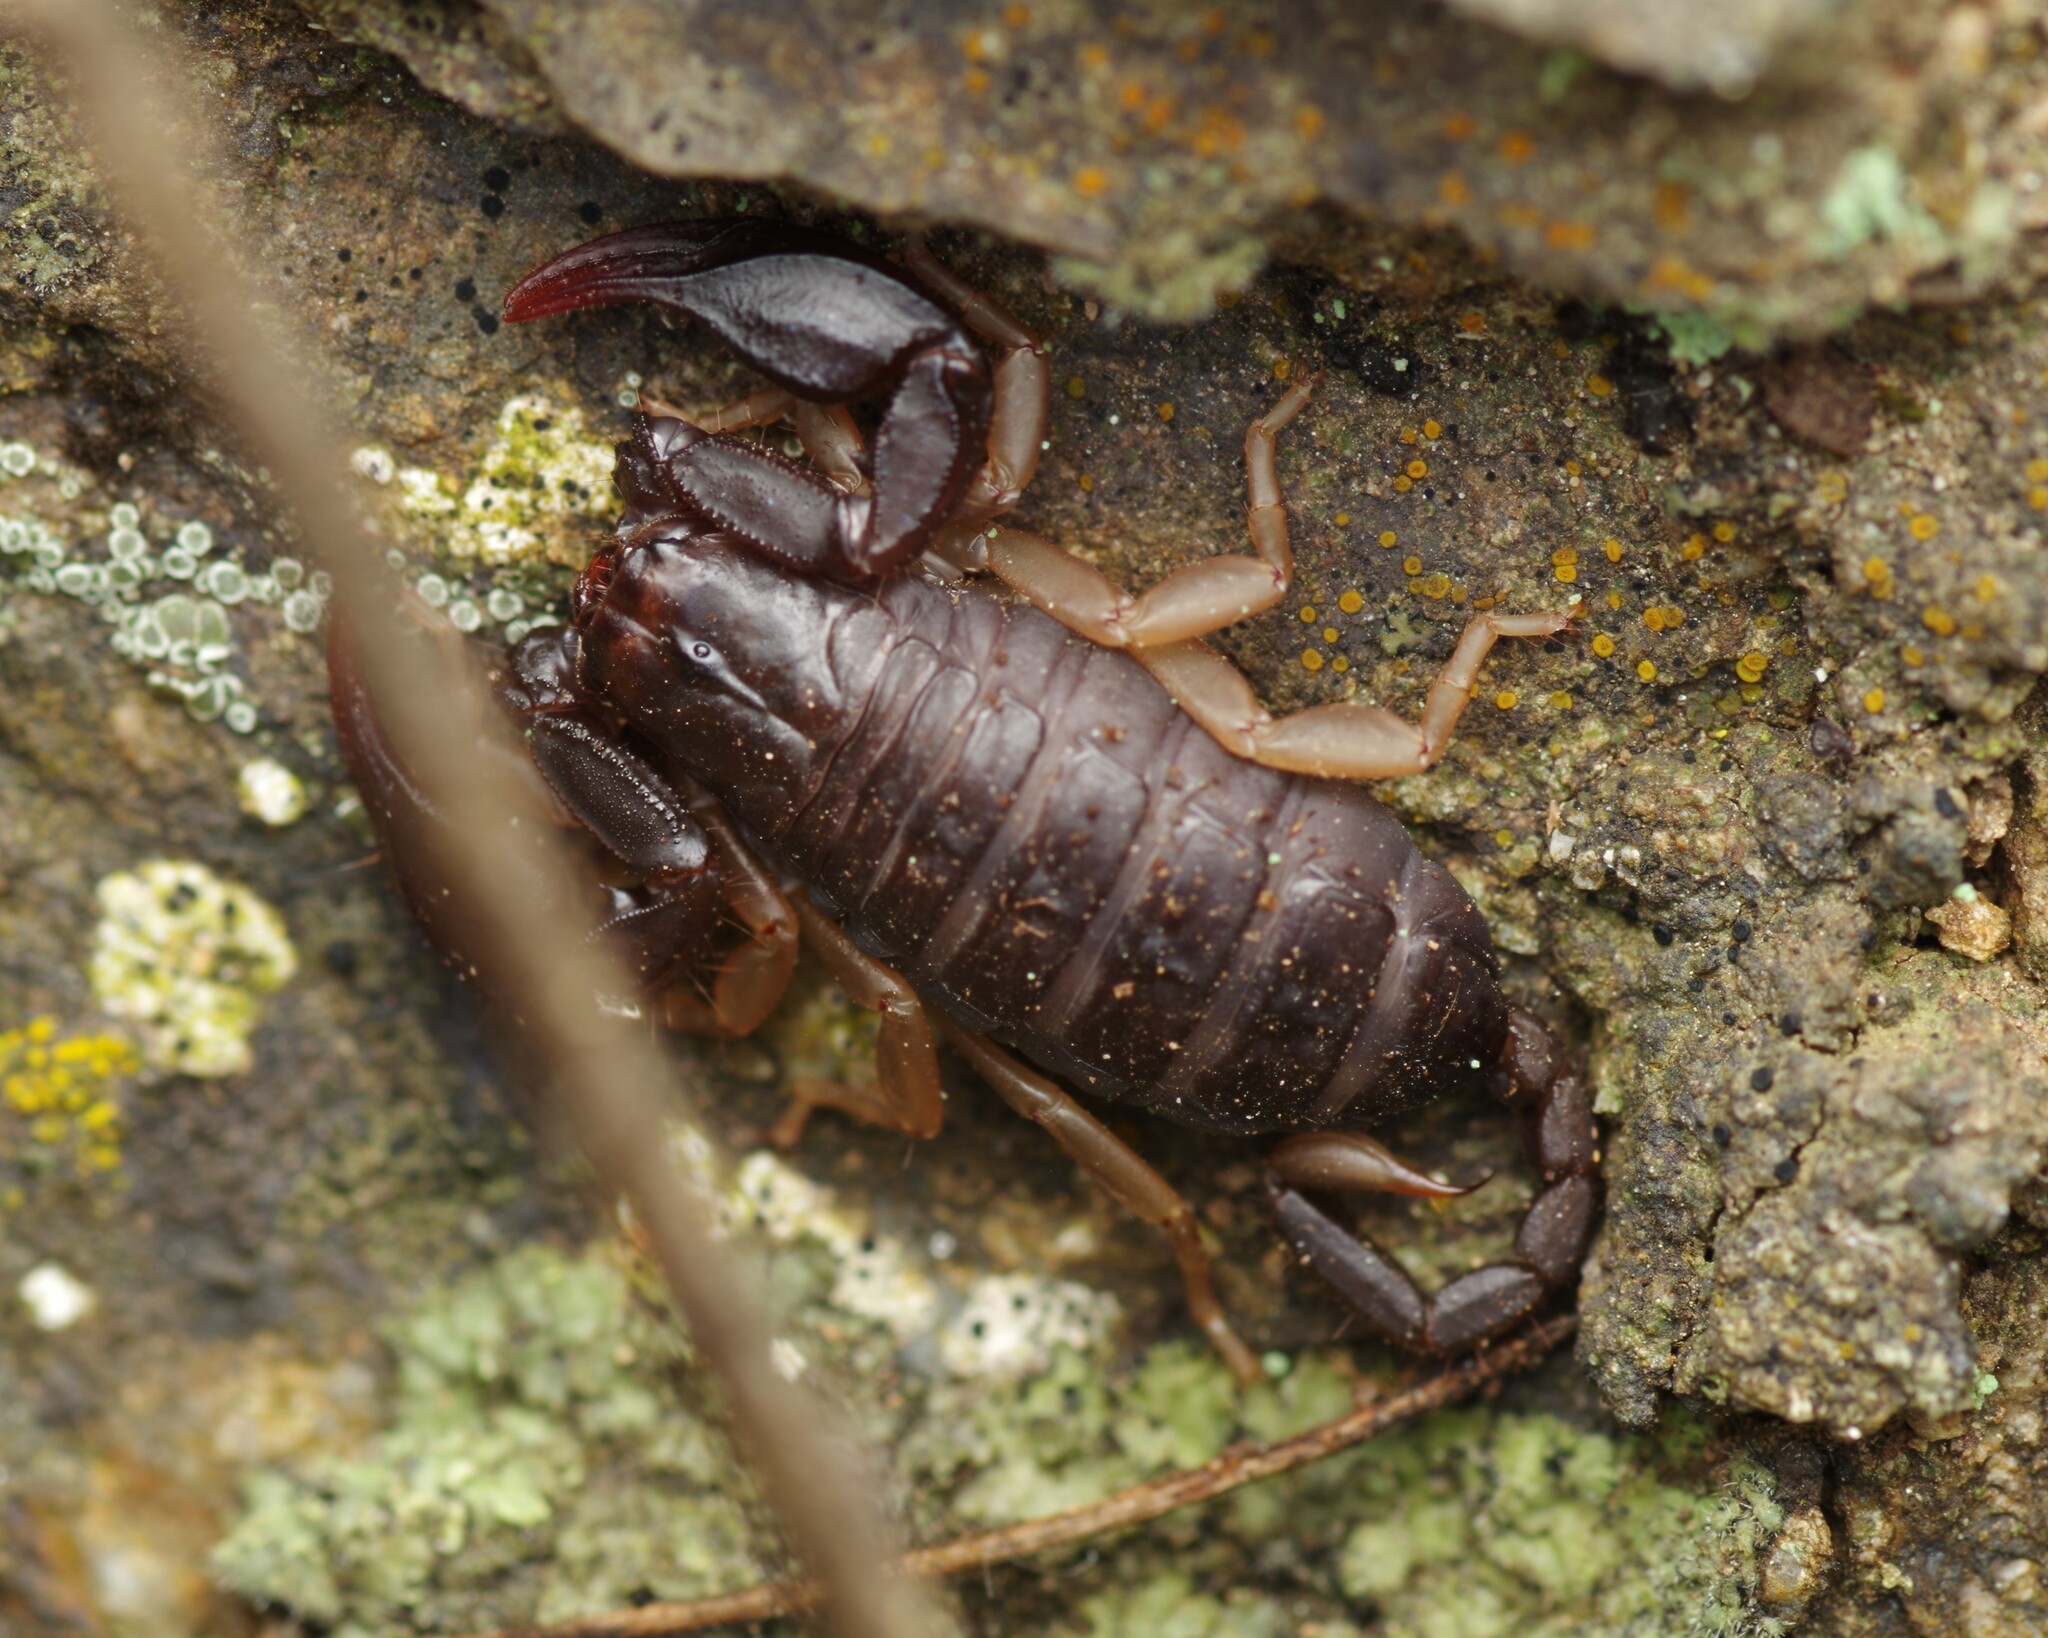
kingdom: Animalia
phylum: Arthropoda
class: Arachnida
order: Scorpiones
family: Euscorpiidae
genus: Euscorpius
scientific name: Euscorpius flavicaudis
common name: European yellow-tailed scorpion
